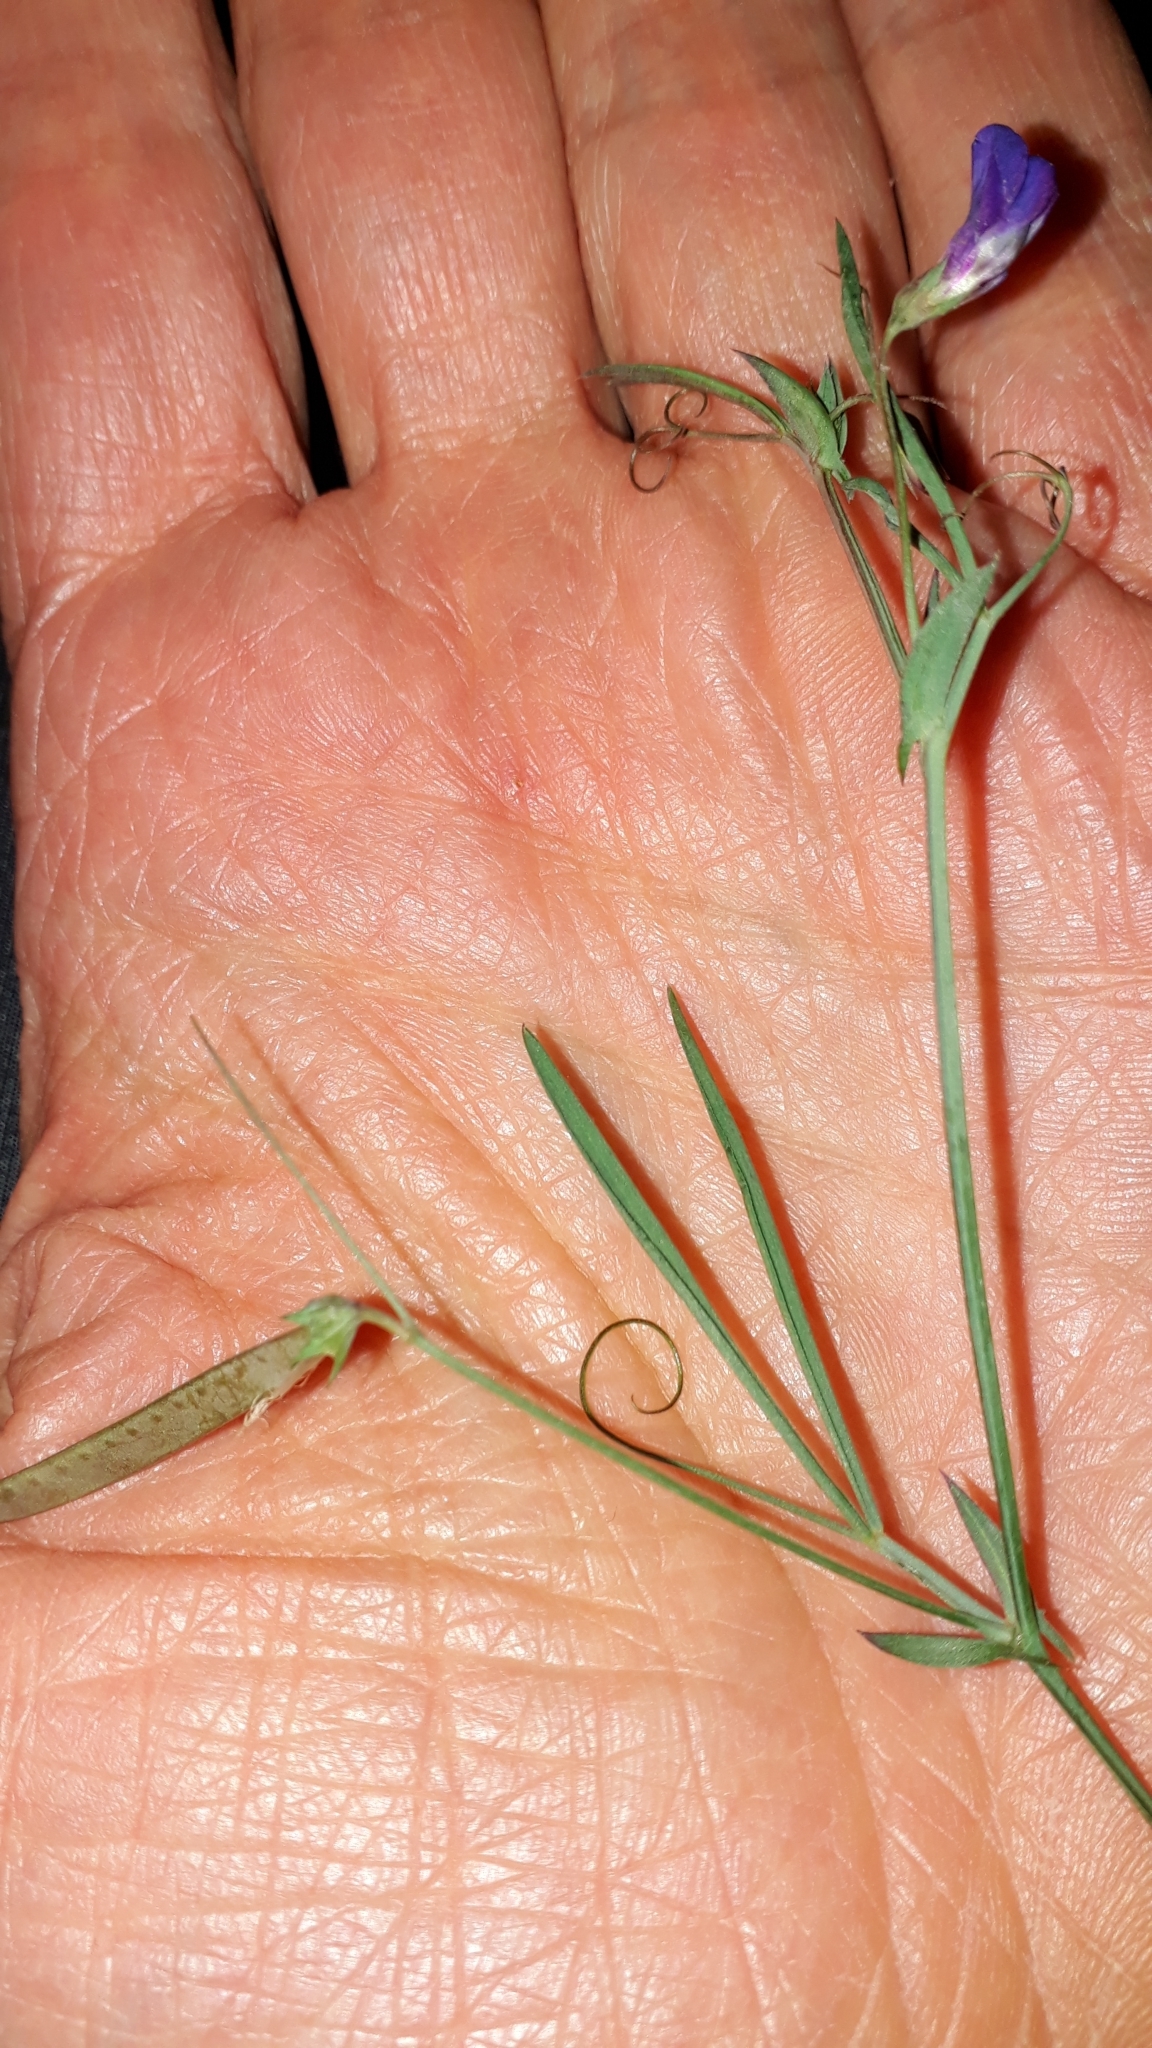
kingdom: Plantae
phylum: Tracheophyta
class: Magnoliopsida
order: Fabales
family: Fabaceae
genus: Lathyrus
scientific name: Lathyrus angulatus
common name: Angular pea
